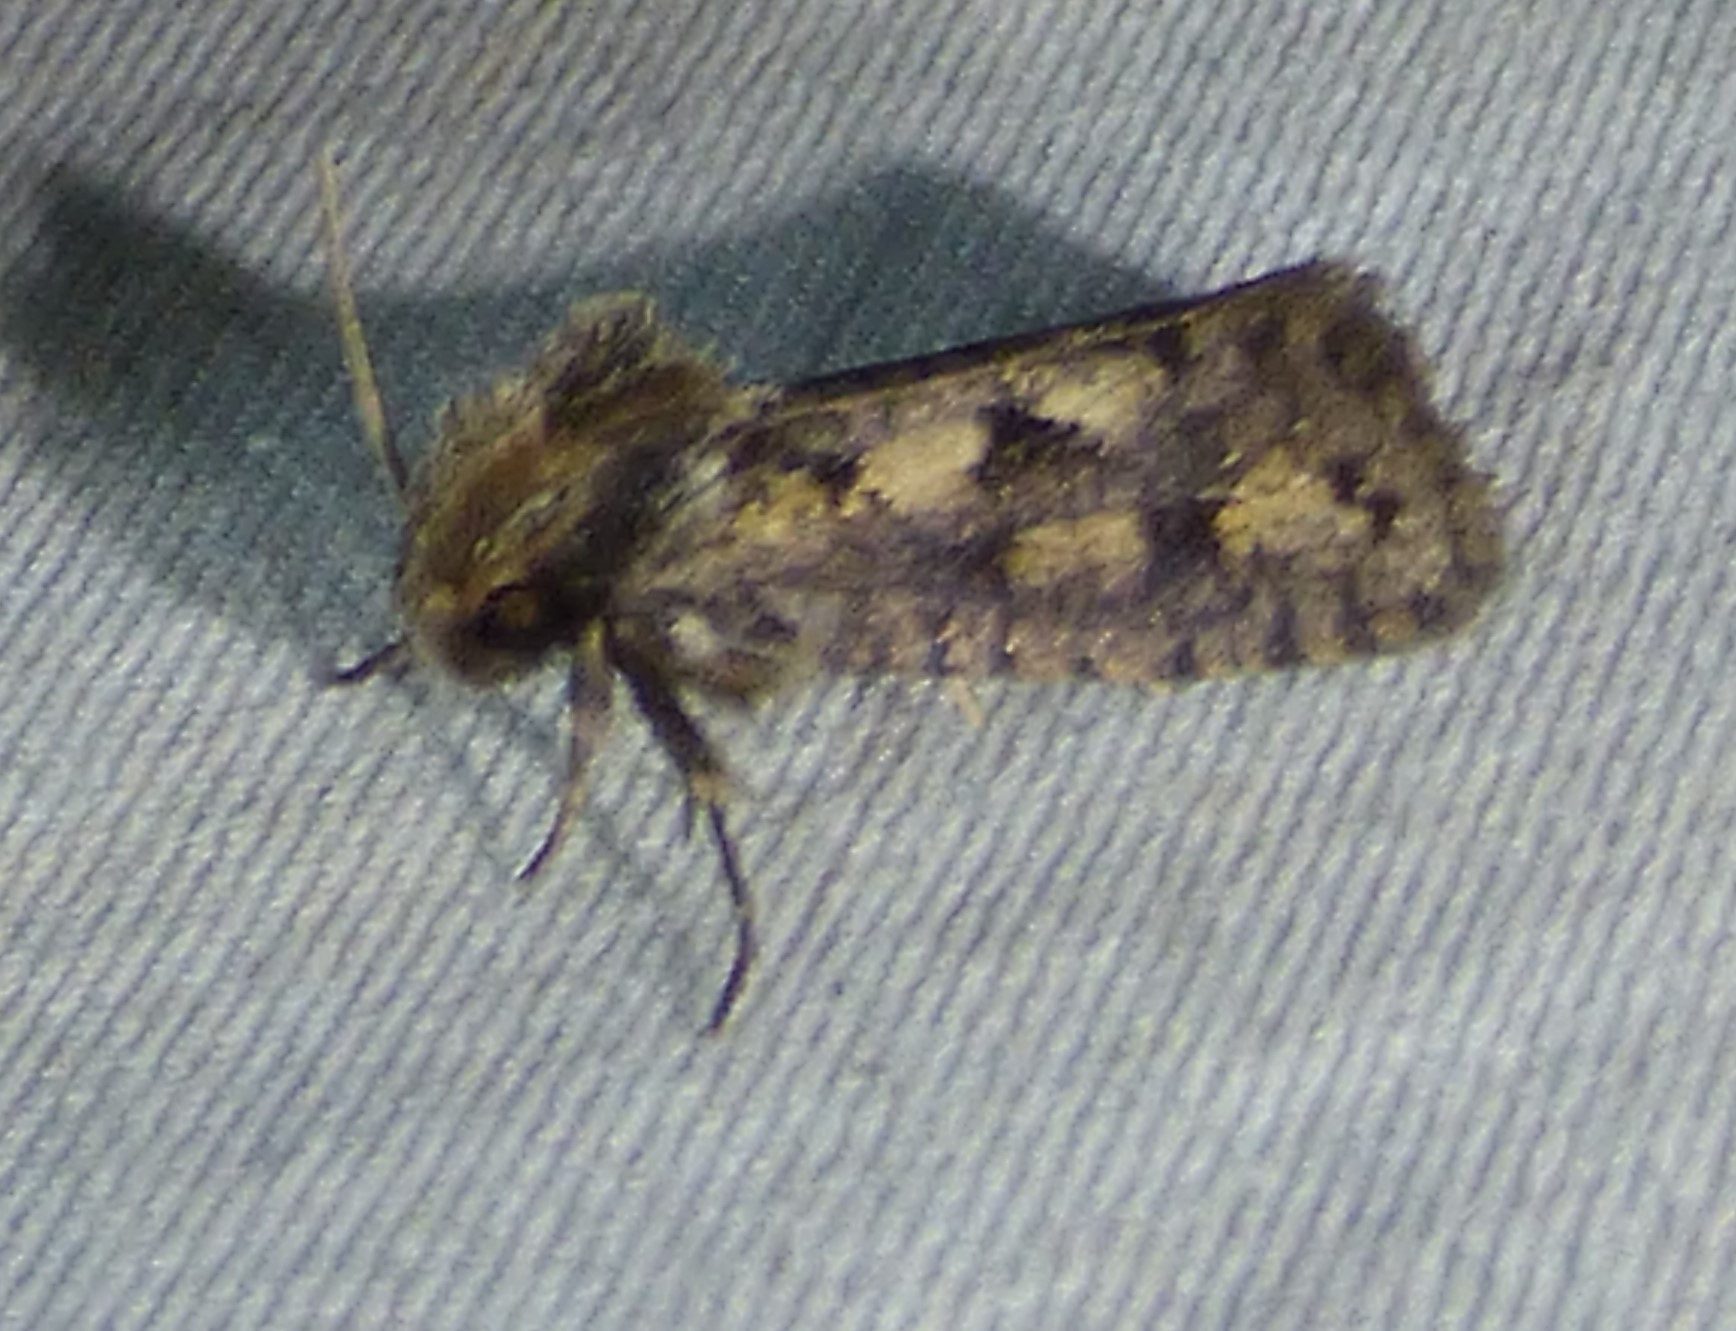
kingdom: Animalia
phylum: Arthropoda
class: Insecta
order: Lepidoptera
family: Tineidae
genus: Acrolophus
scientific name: Acrolophus popeanella
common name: Clemens' grass tubeworm moth
